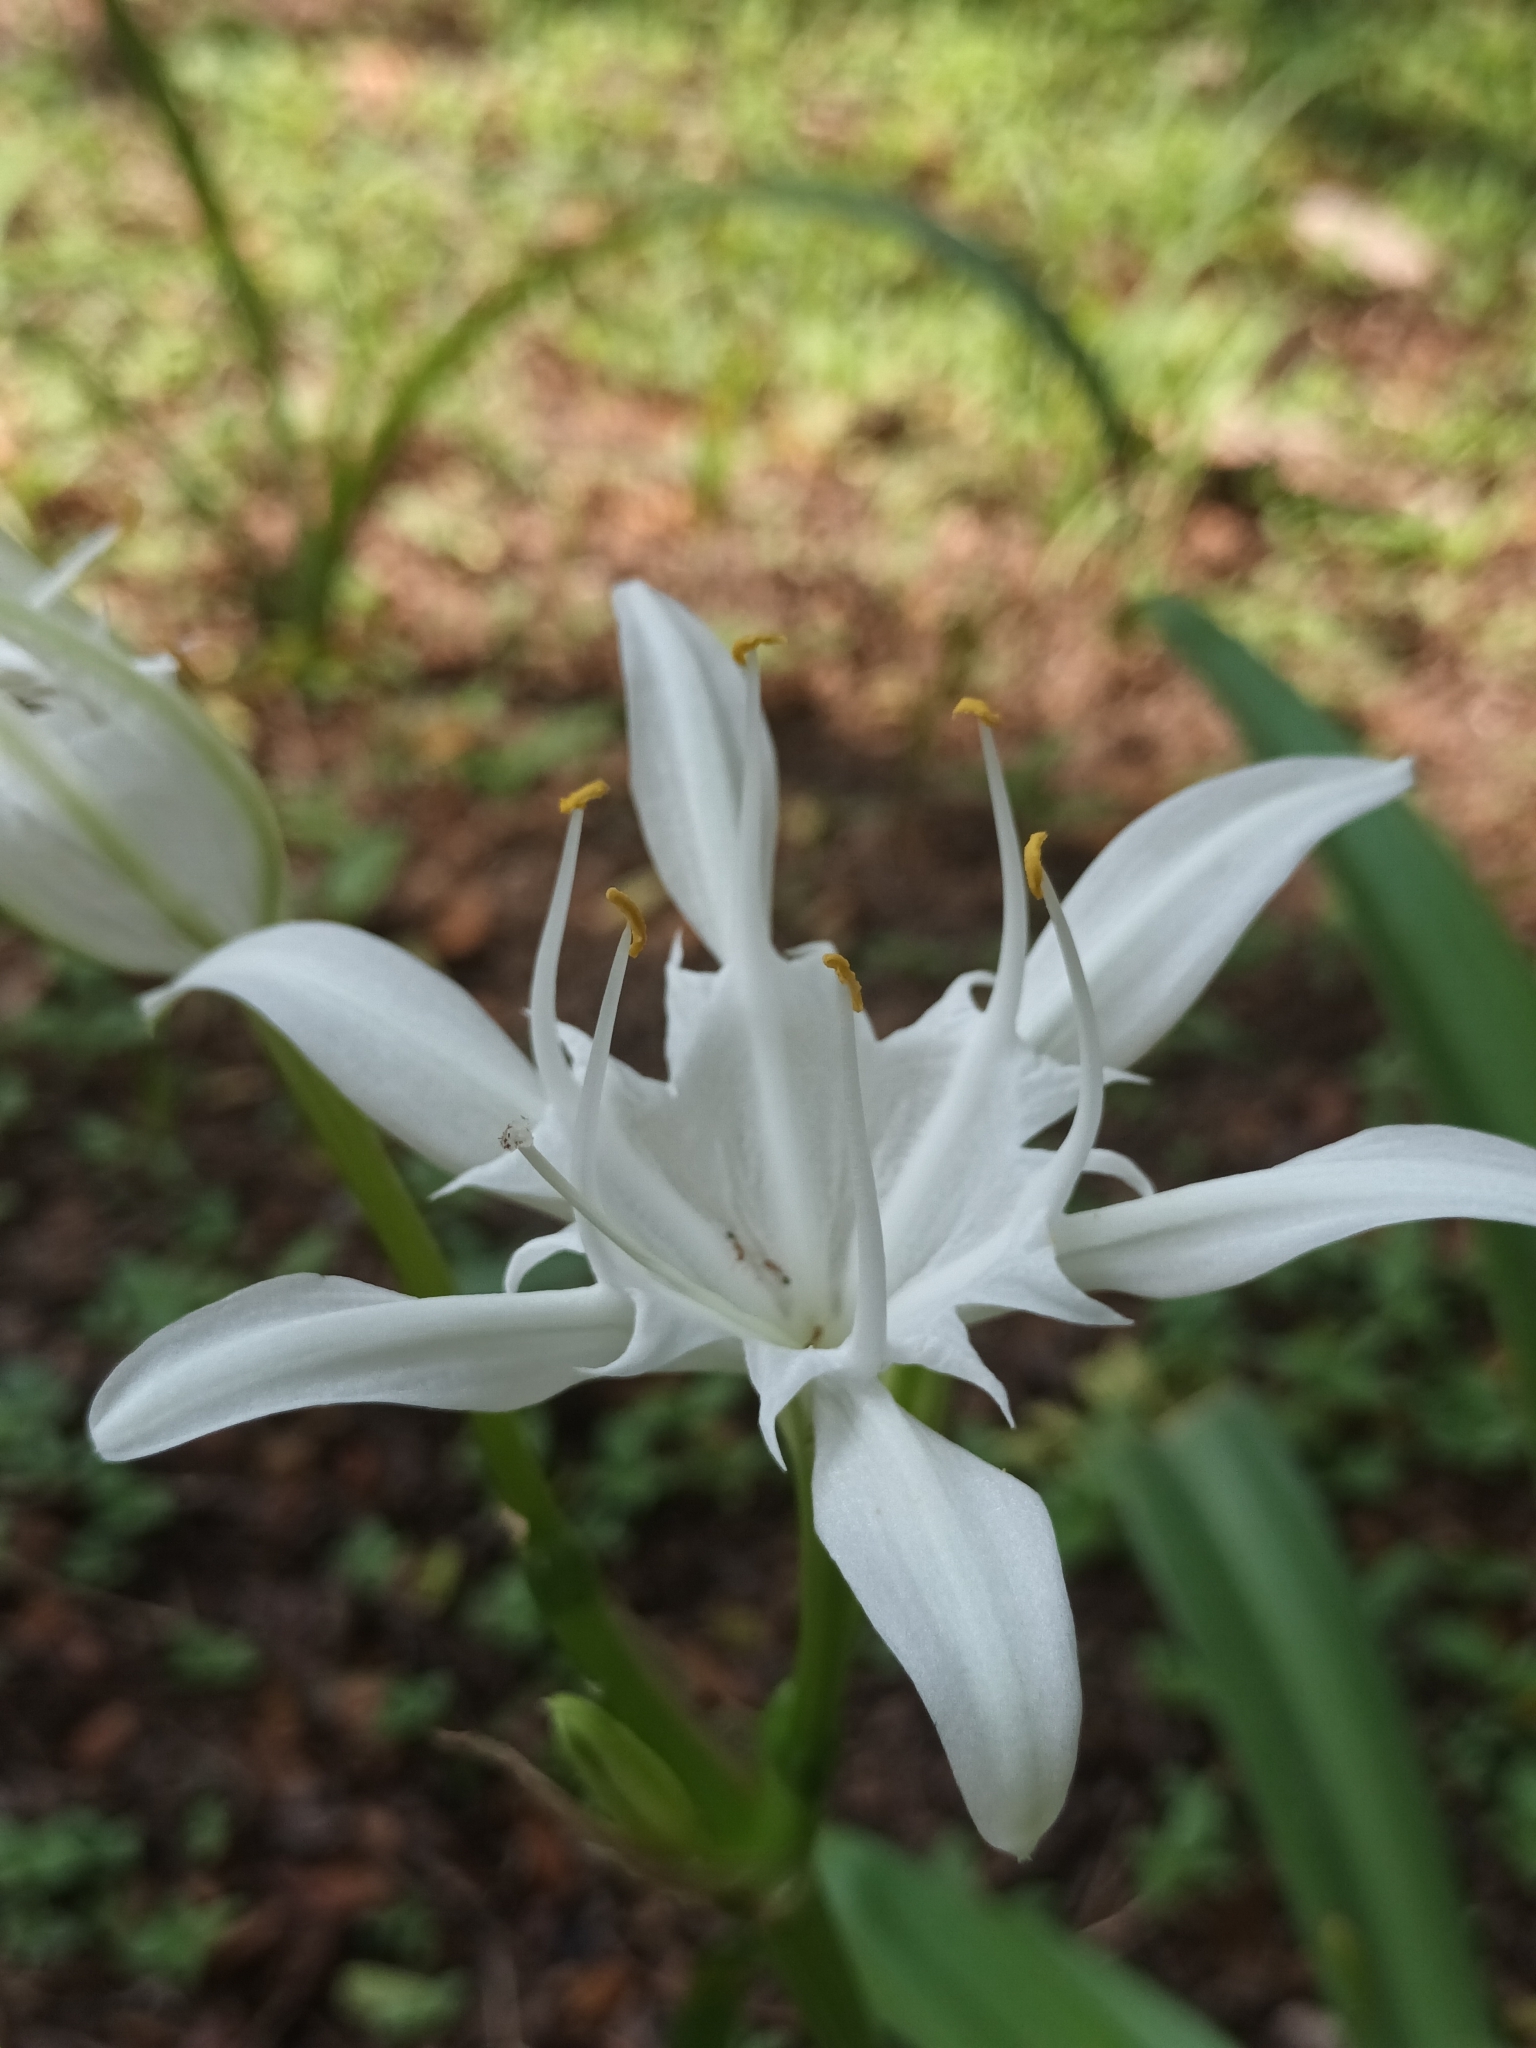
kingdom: Plantae
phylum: Tracheophyta
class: Liliopsida
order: Asparagales
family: Amaryllidaceae
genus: Pancratium
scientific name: Pancratium triflorum
